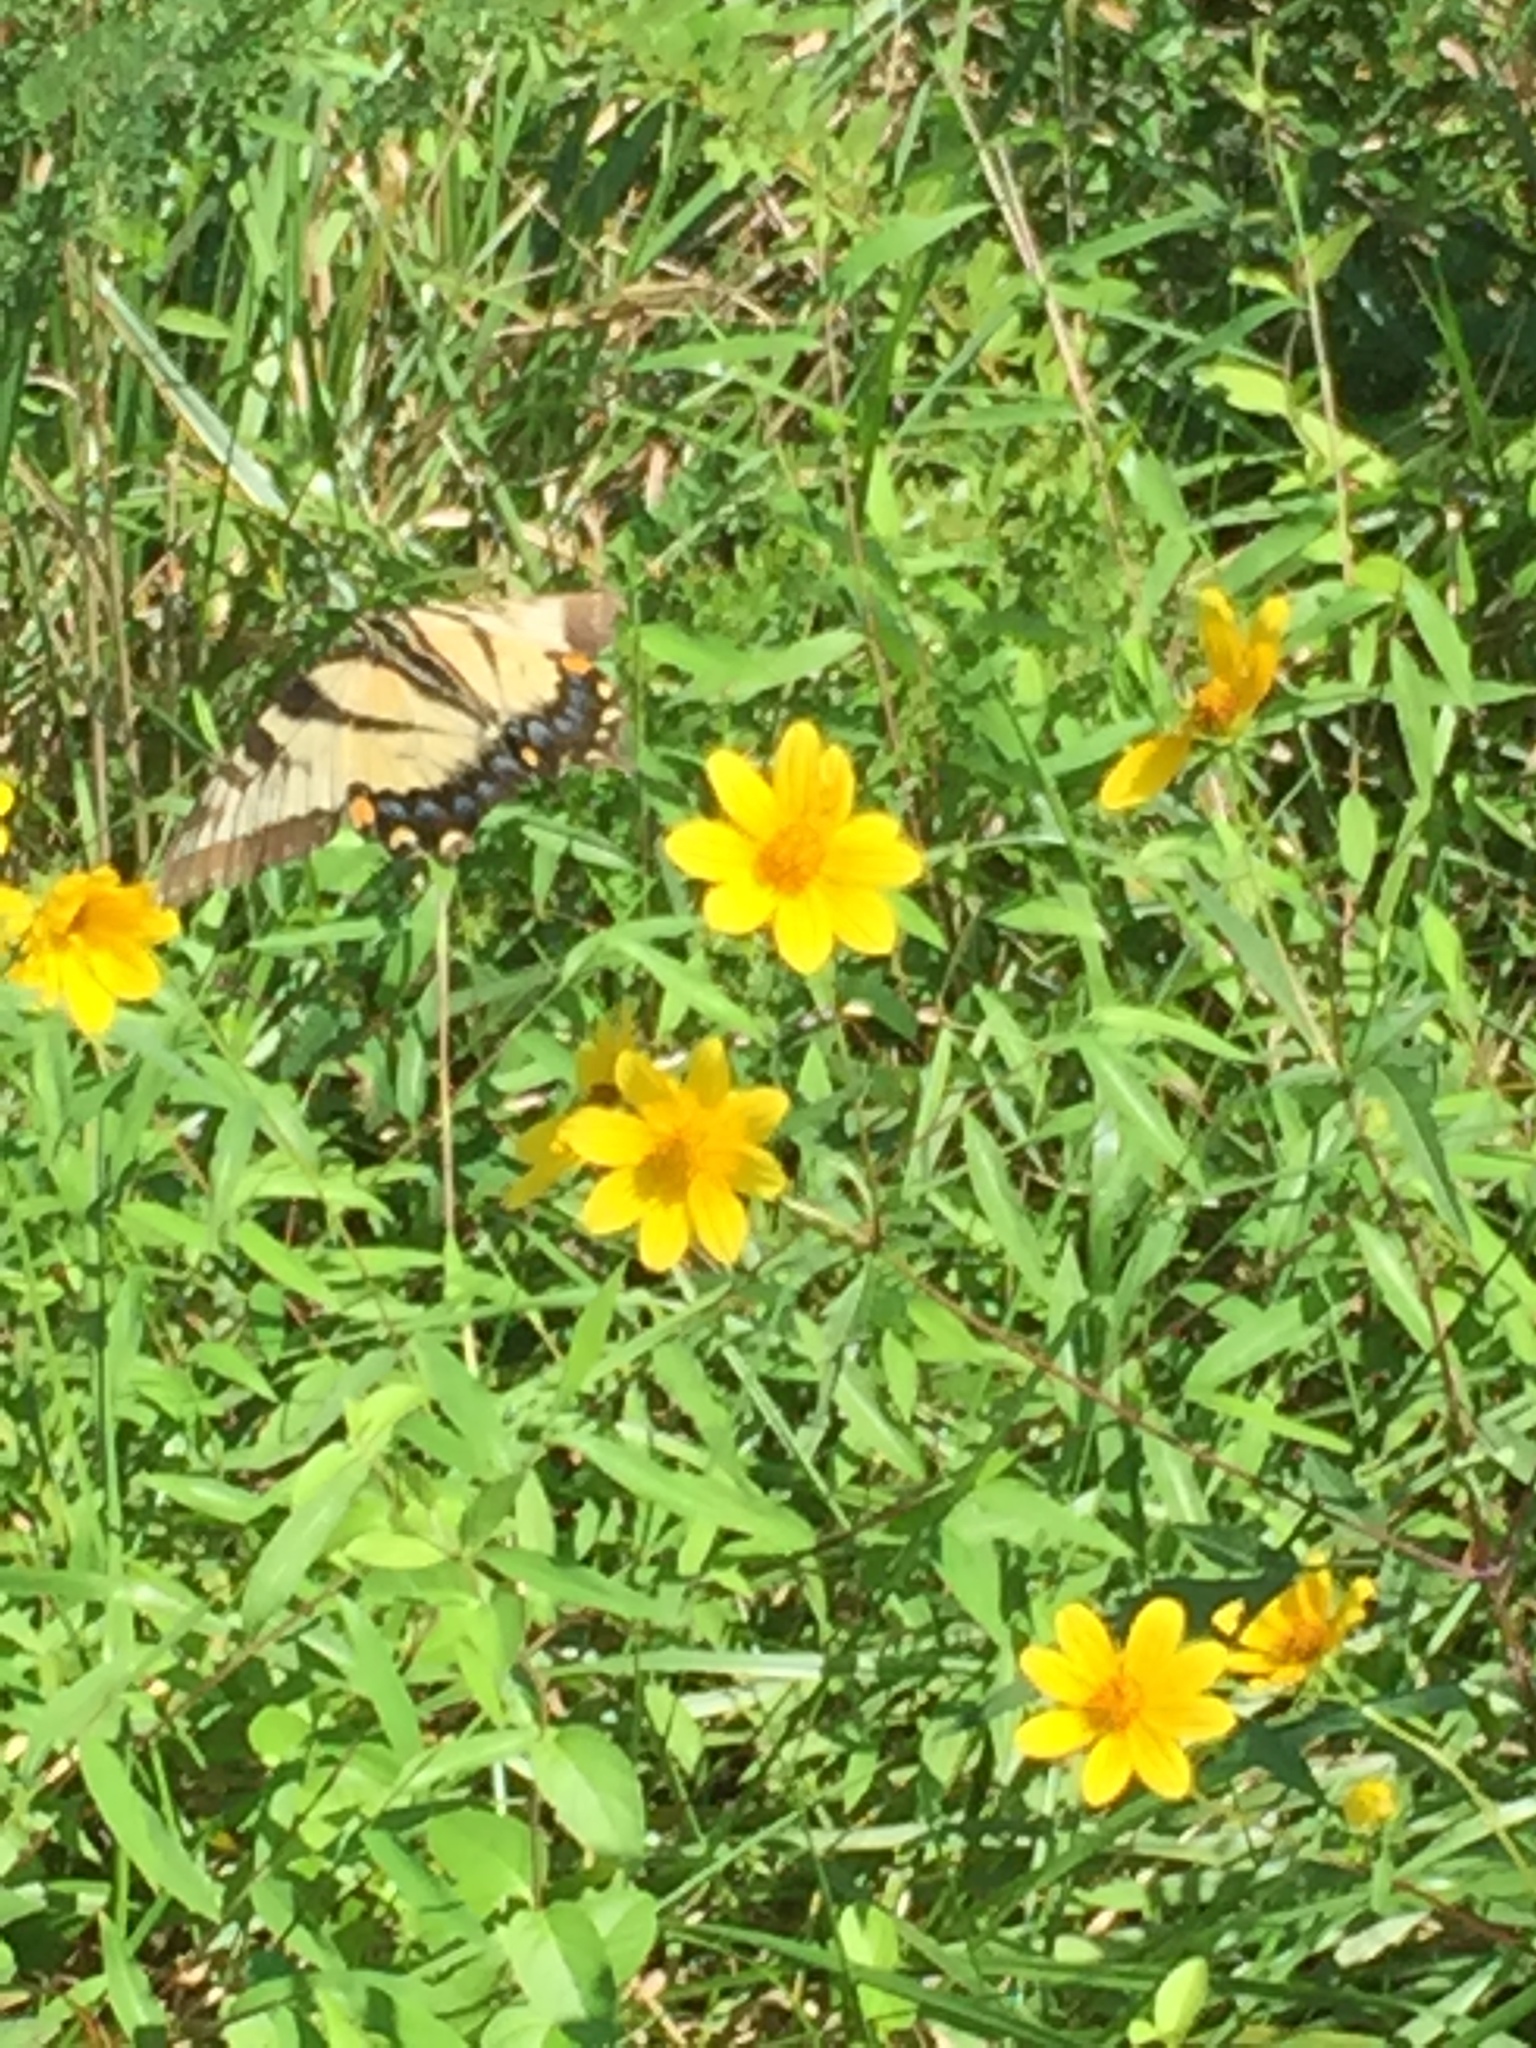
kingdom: Animalia
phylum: Arthropoda
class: Insecta
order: Lepidoptera
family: Papilionidae
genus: Papilio
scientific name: Papilio glaucus
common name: Tiger swallowtail
